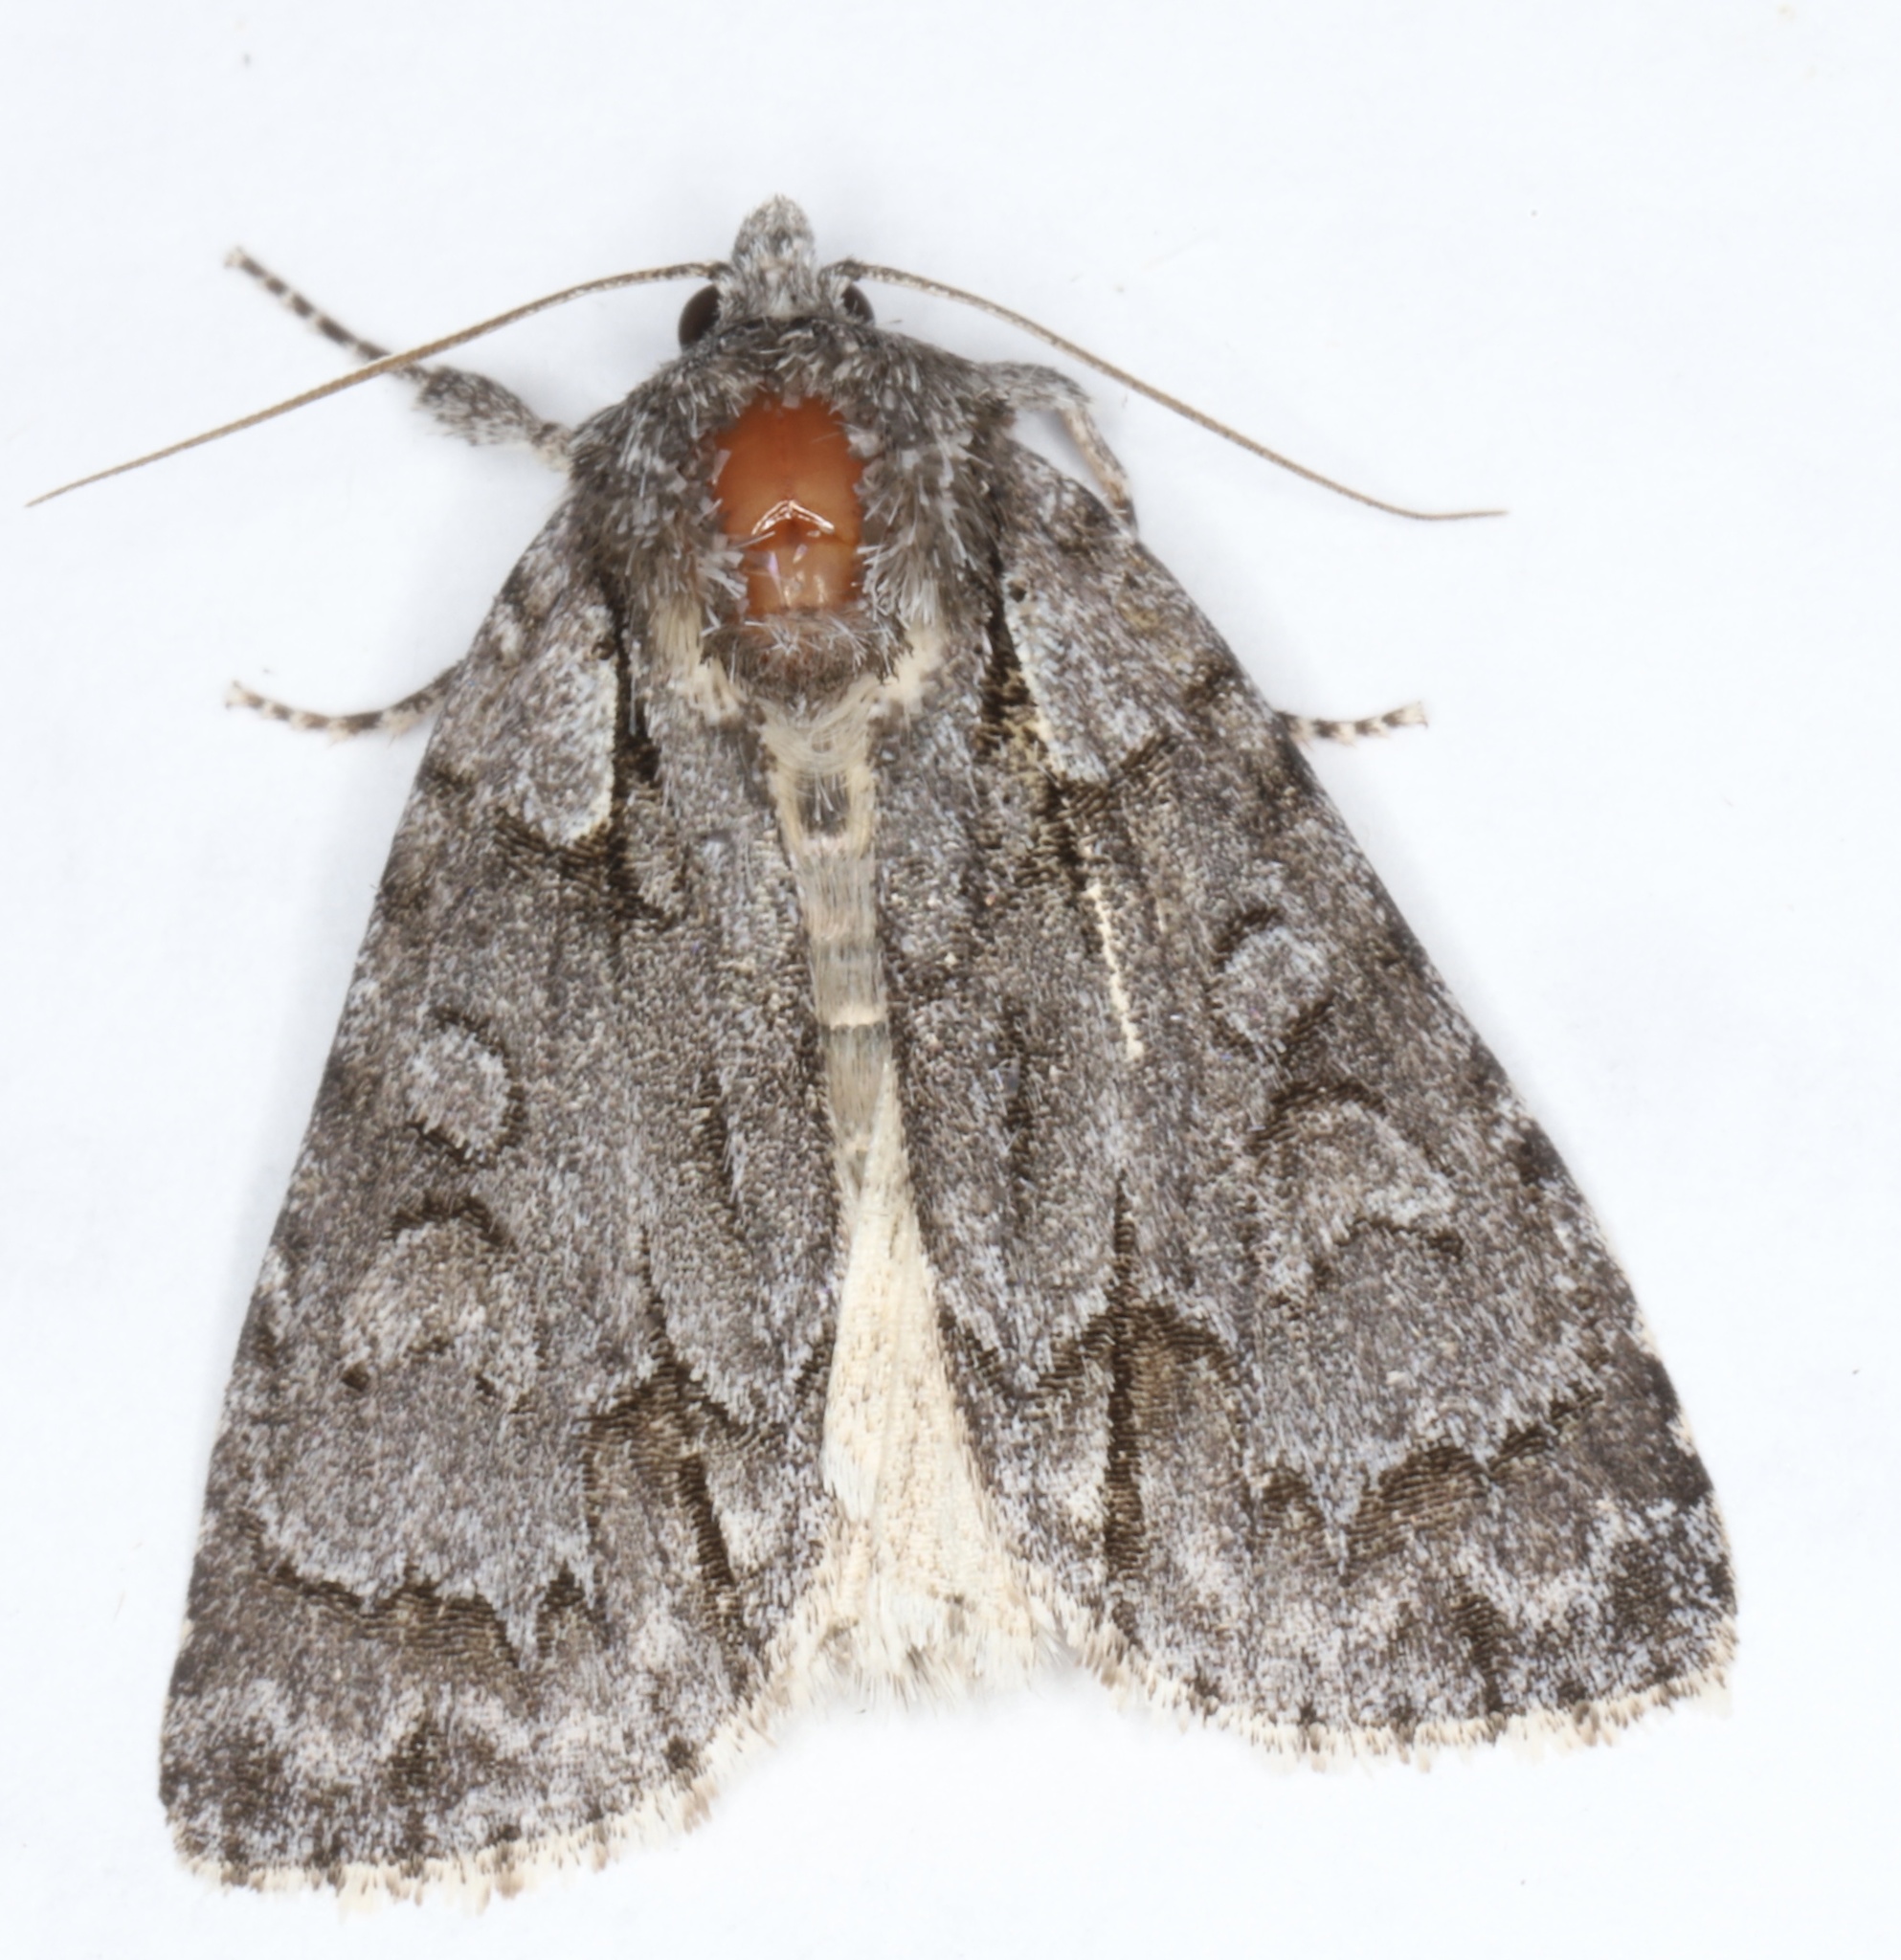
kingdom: Animalia
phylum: Arthropoda
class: Insecta
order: Lepidoptera
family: Noctuidae
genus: Acronicta
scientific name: Acronicta grisea
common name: Gray dagger
